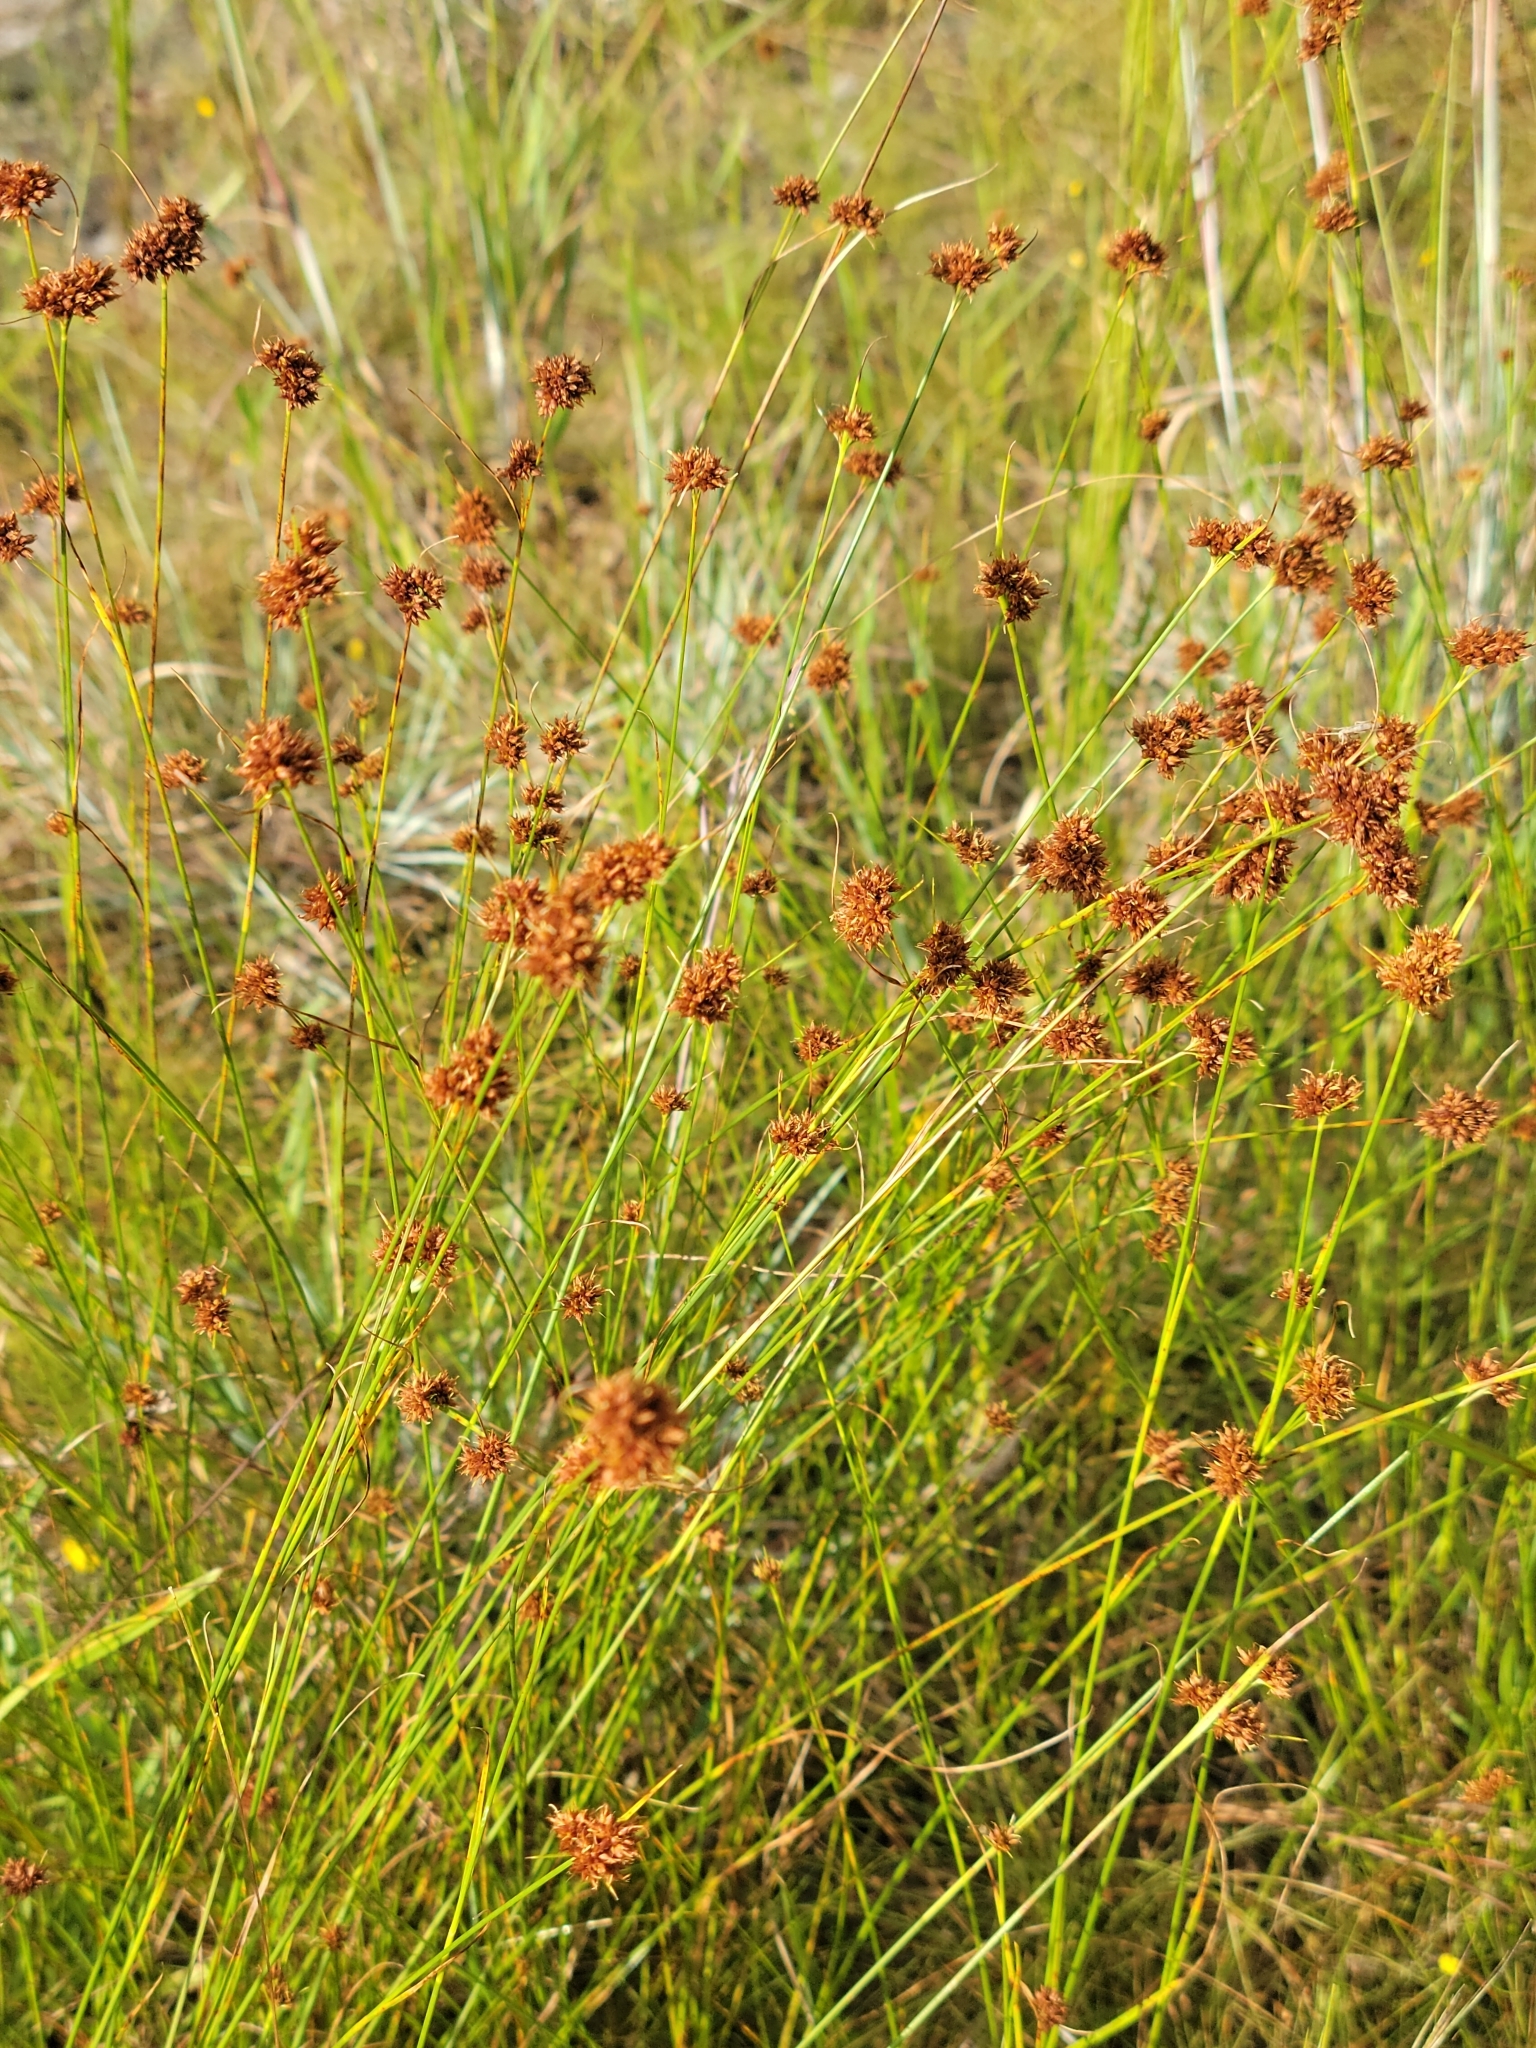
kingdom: Plantae
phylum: Tracheophyta
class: Liliopsida
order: Poales
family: Cyperaceae
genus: Rhynchospora
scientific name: Rhynchospora fernaldii
